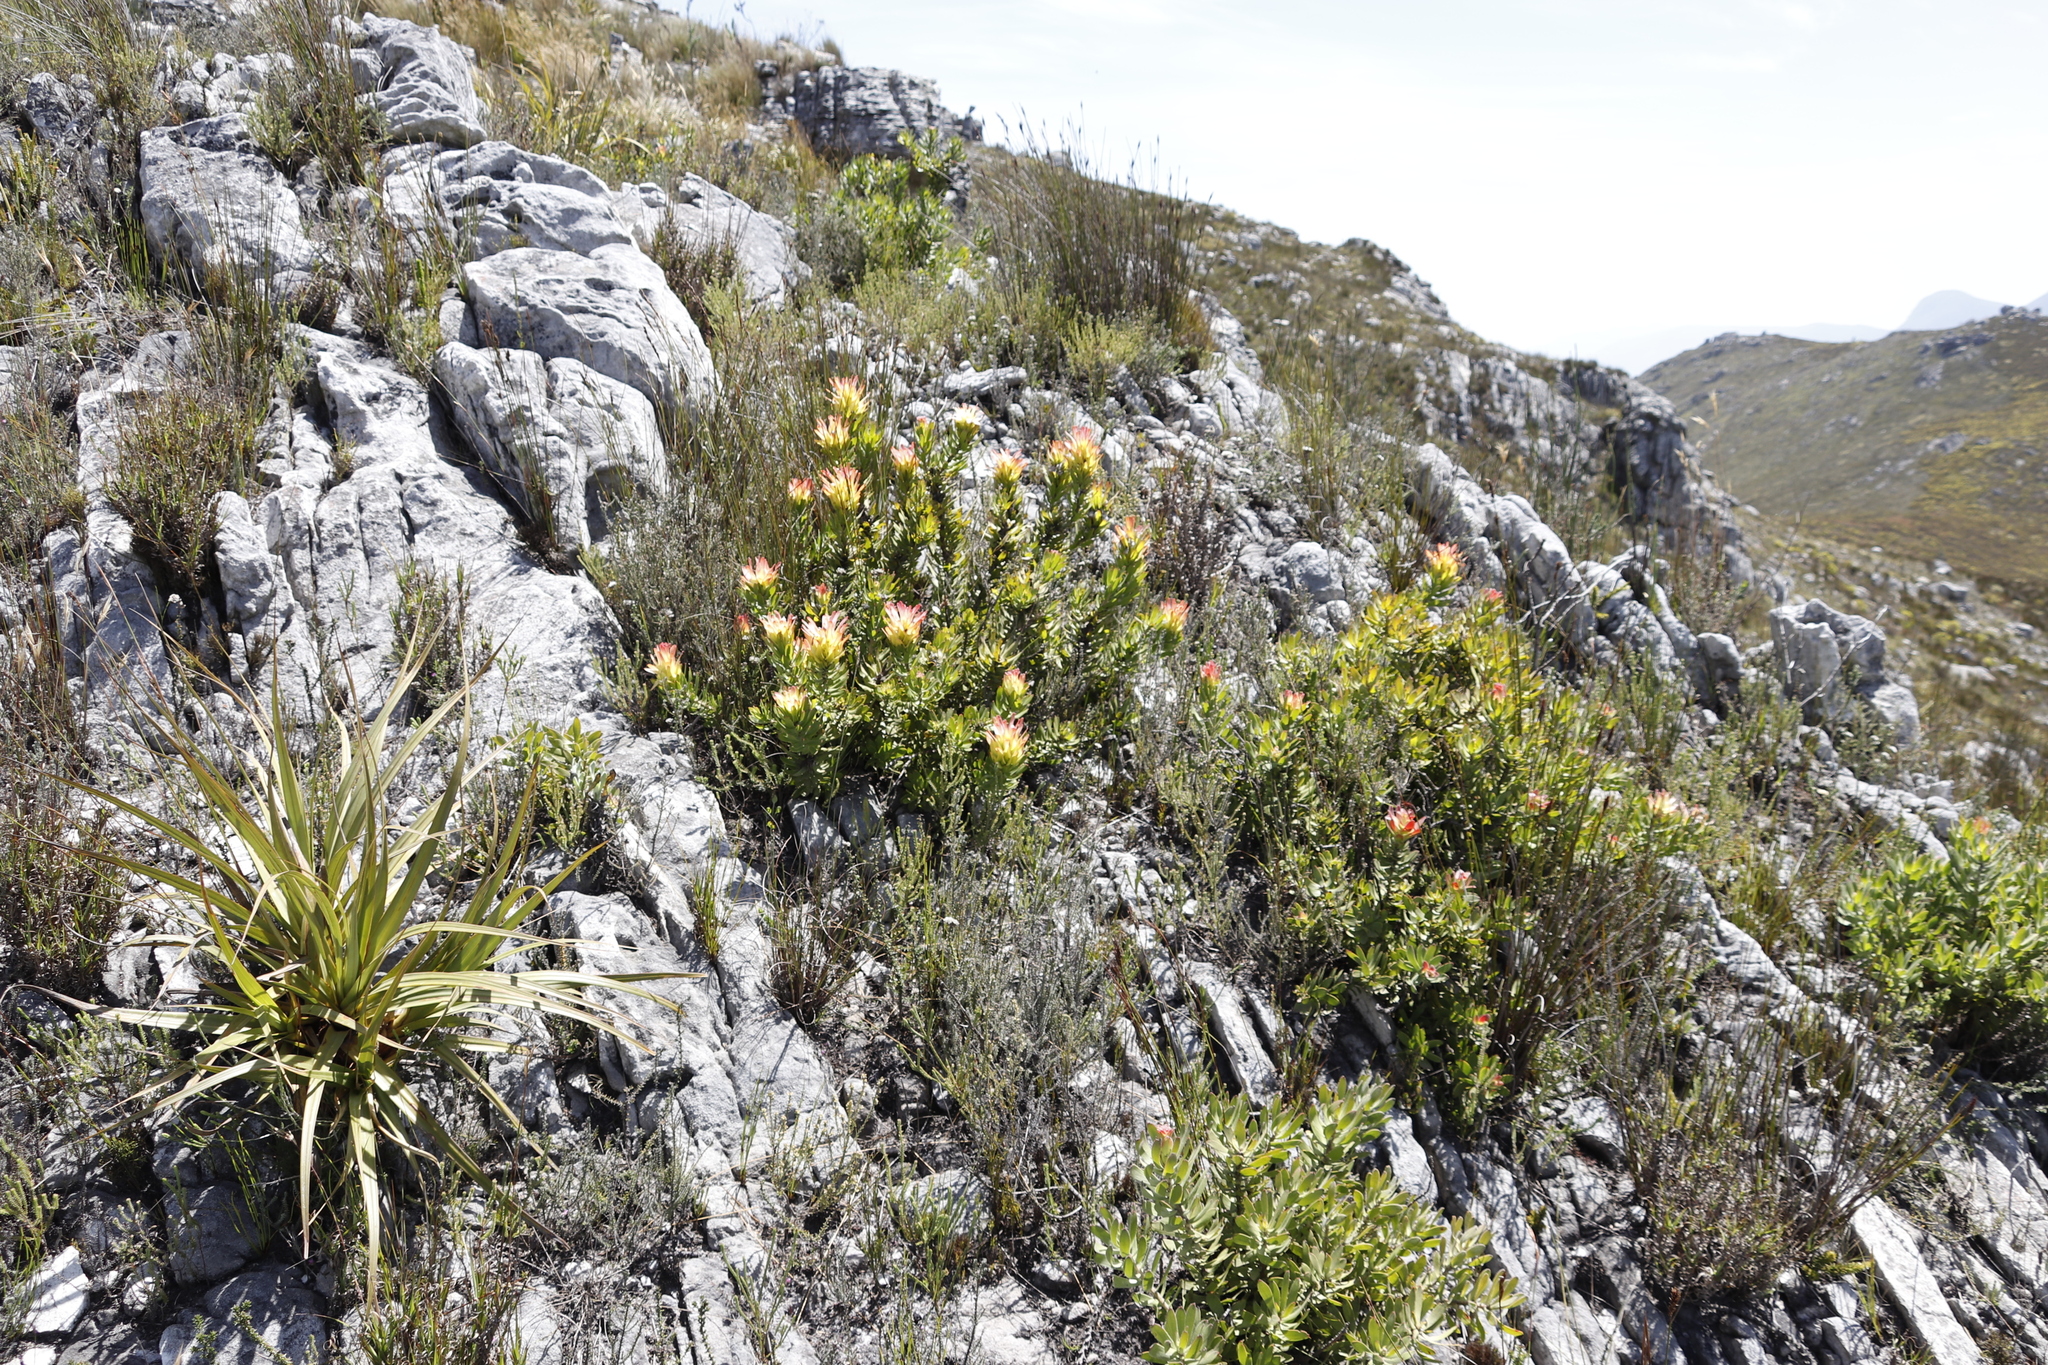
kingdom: Plantae
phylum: Tracheophyta
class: Magnoliopsida
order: Proteales
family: Proteaceae
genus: Mimetes
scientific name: Mimetes cucullatus
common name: Common pagoda
